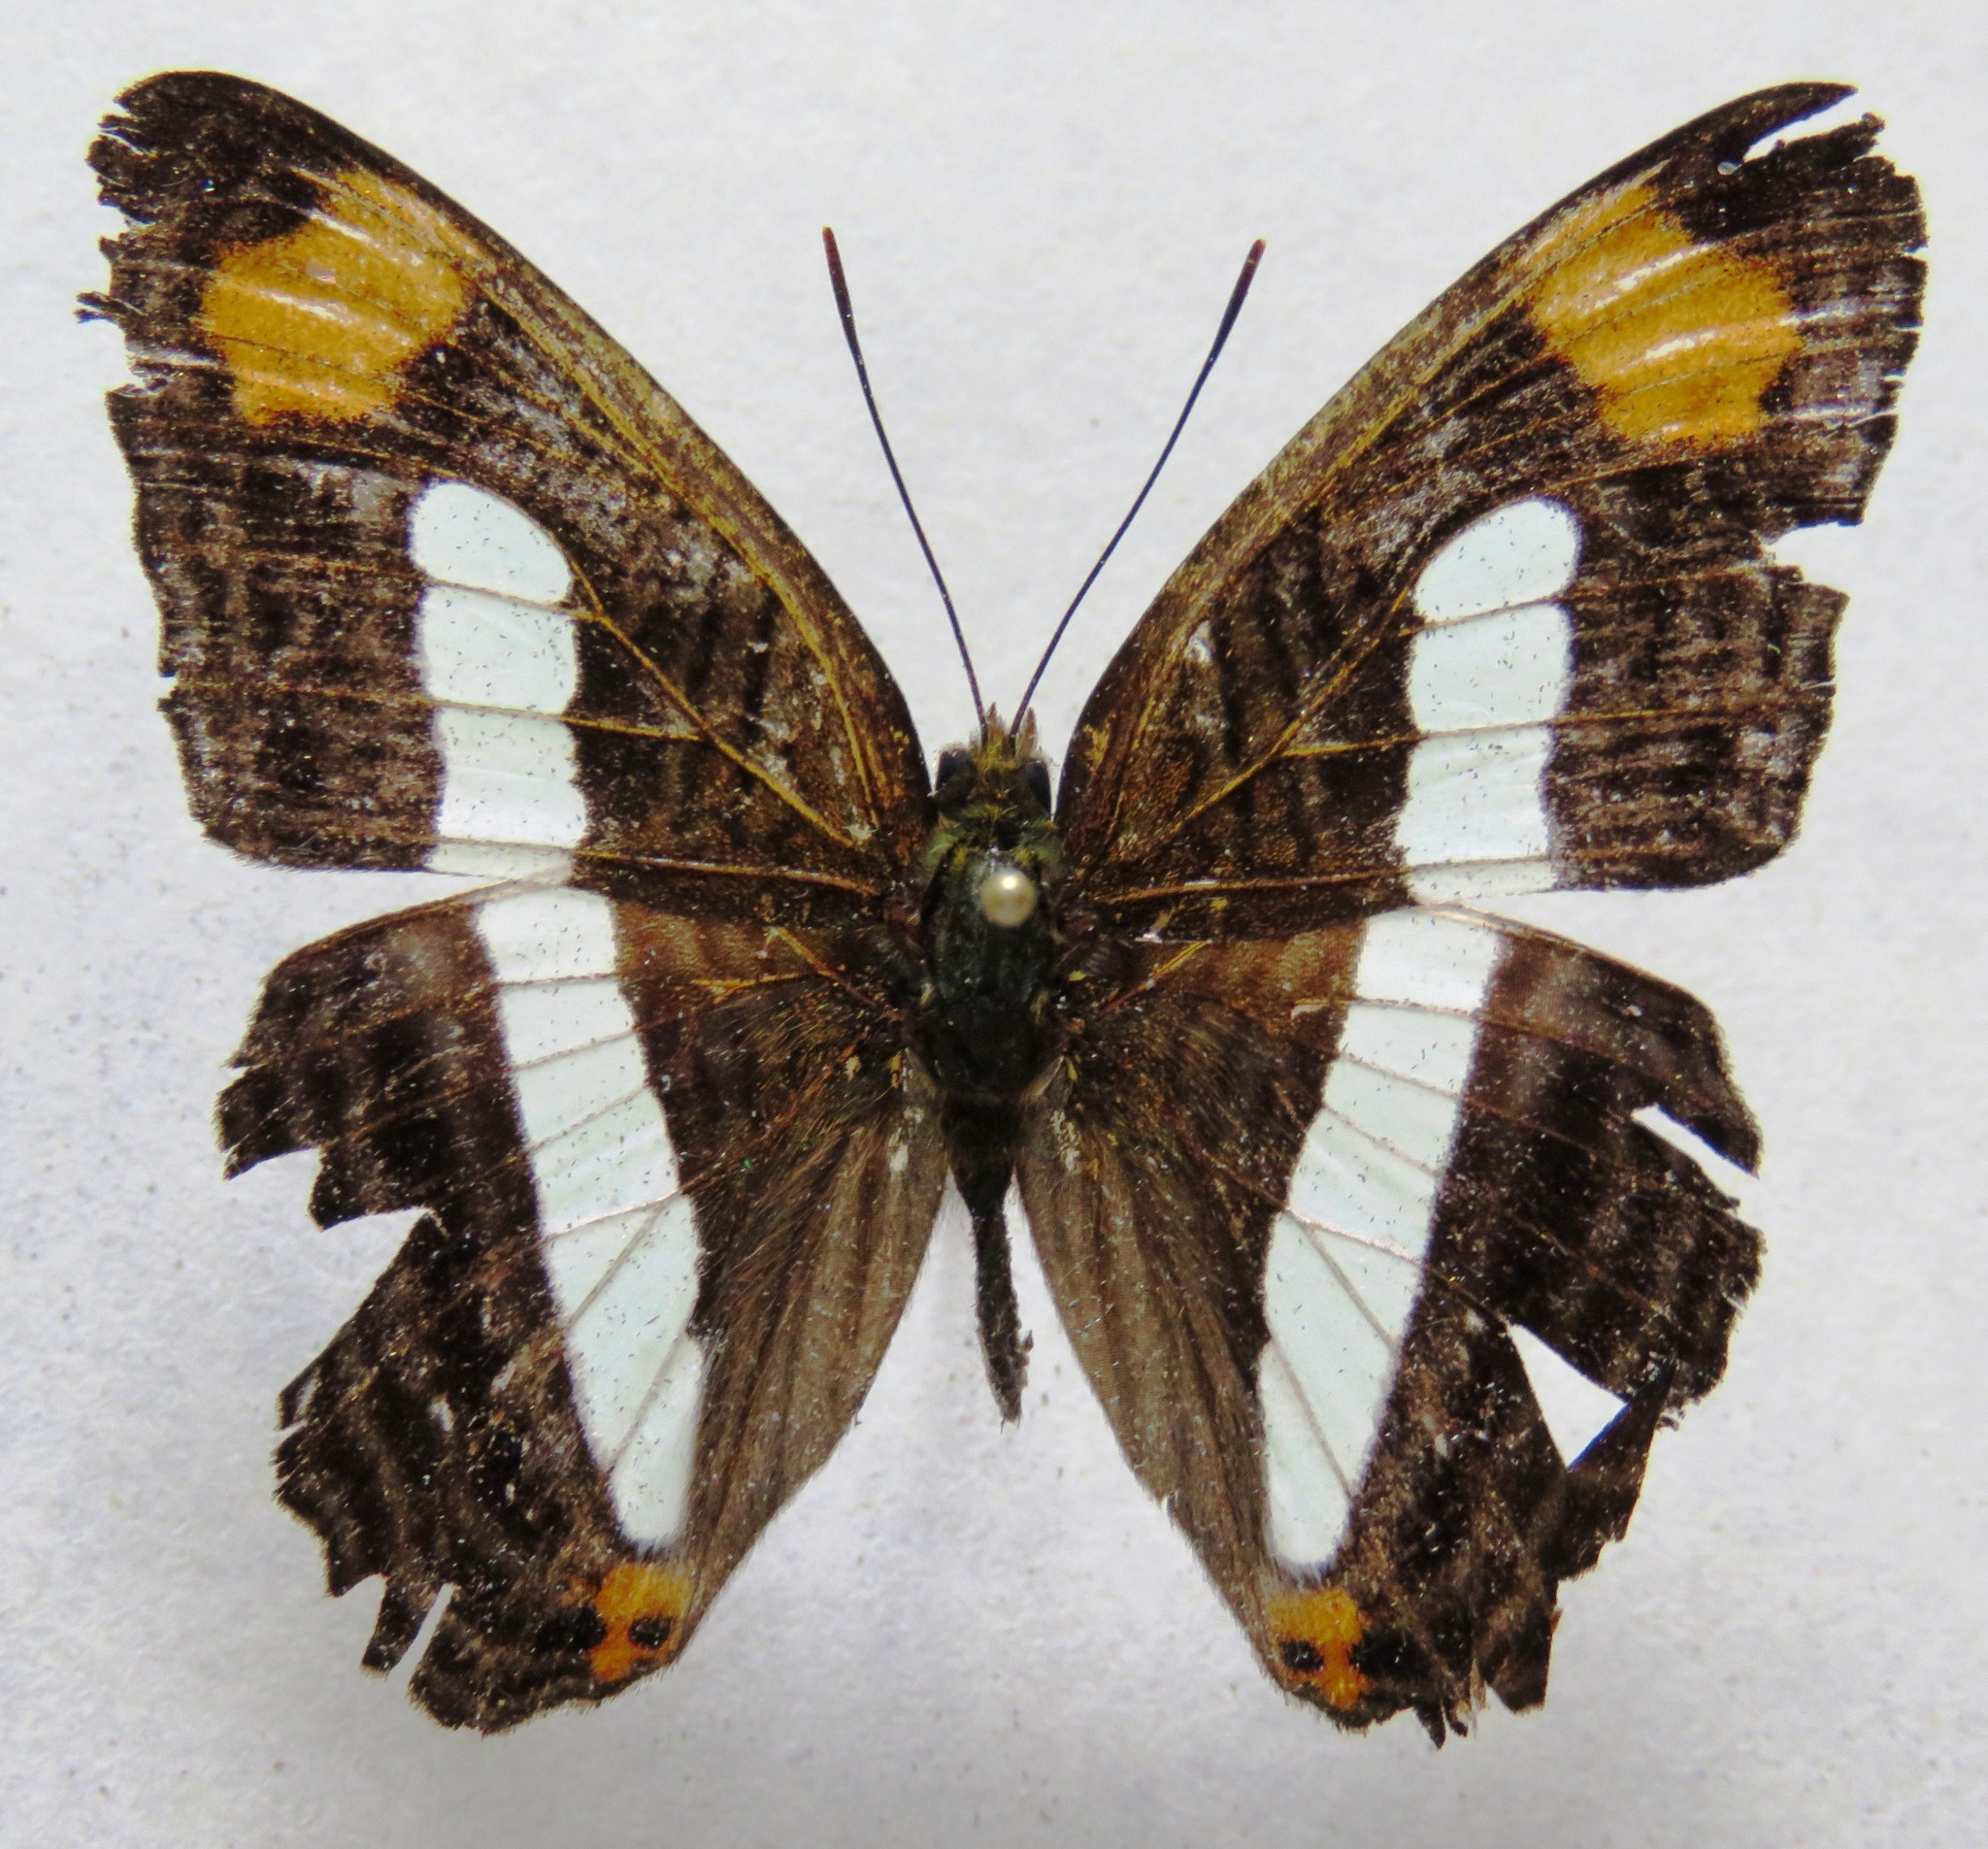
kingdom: Animalia
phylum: Arthropoda
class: Insecta
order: Lepidoptera
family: Nymphalidae
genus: Limenitis
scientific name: Limenitis iphiclus
